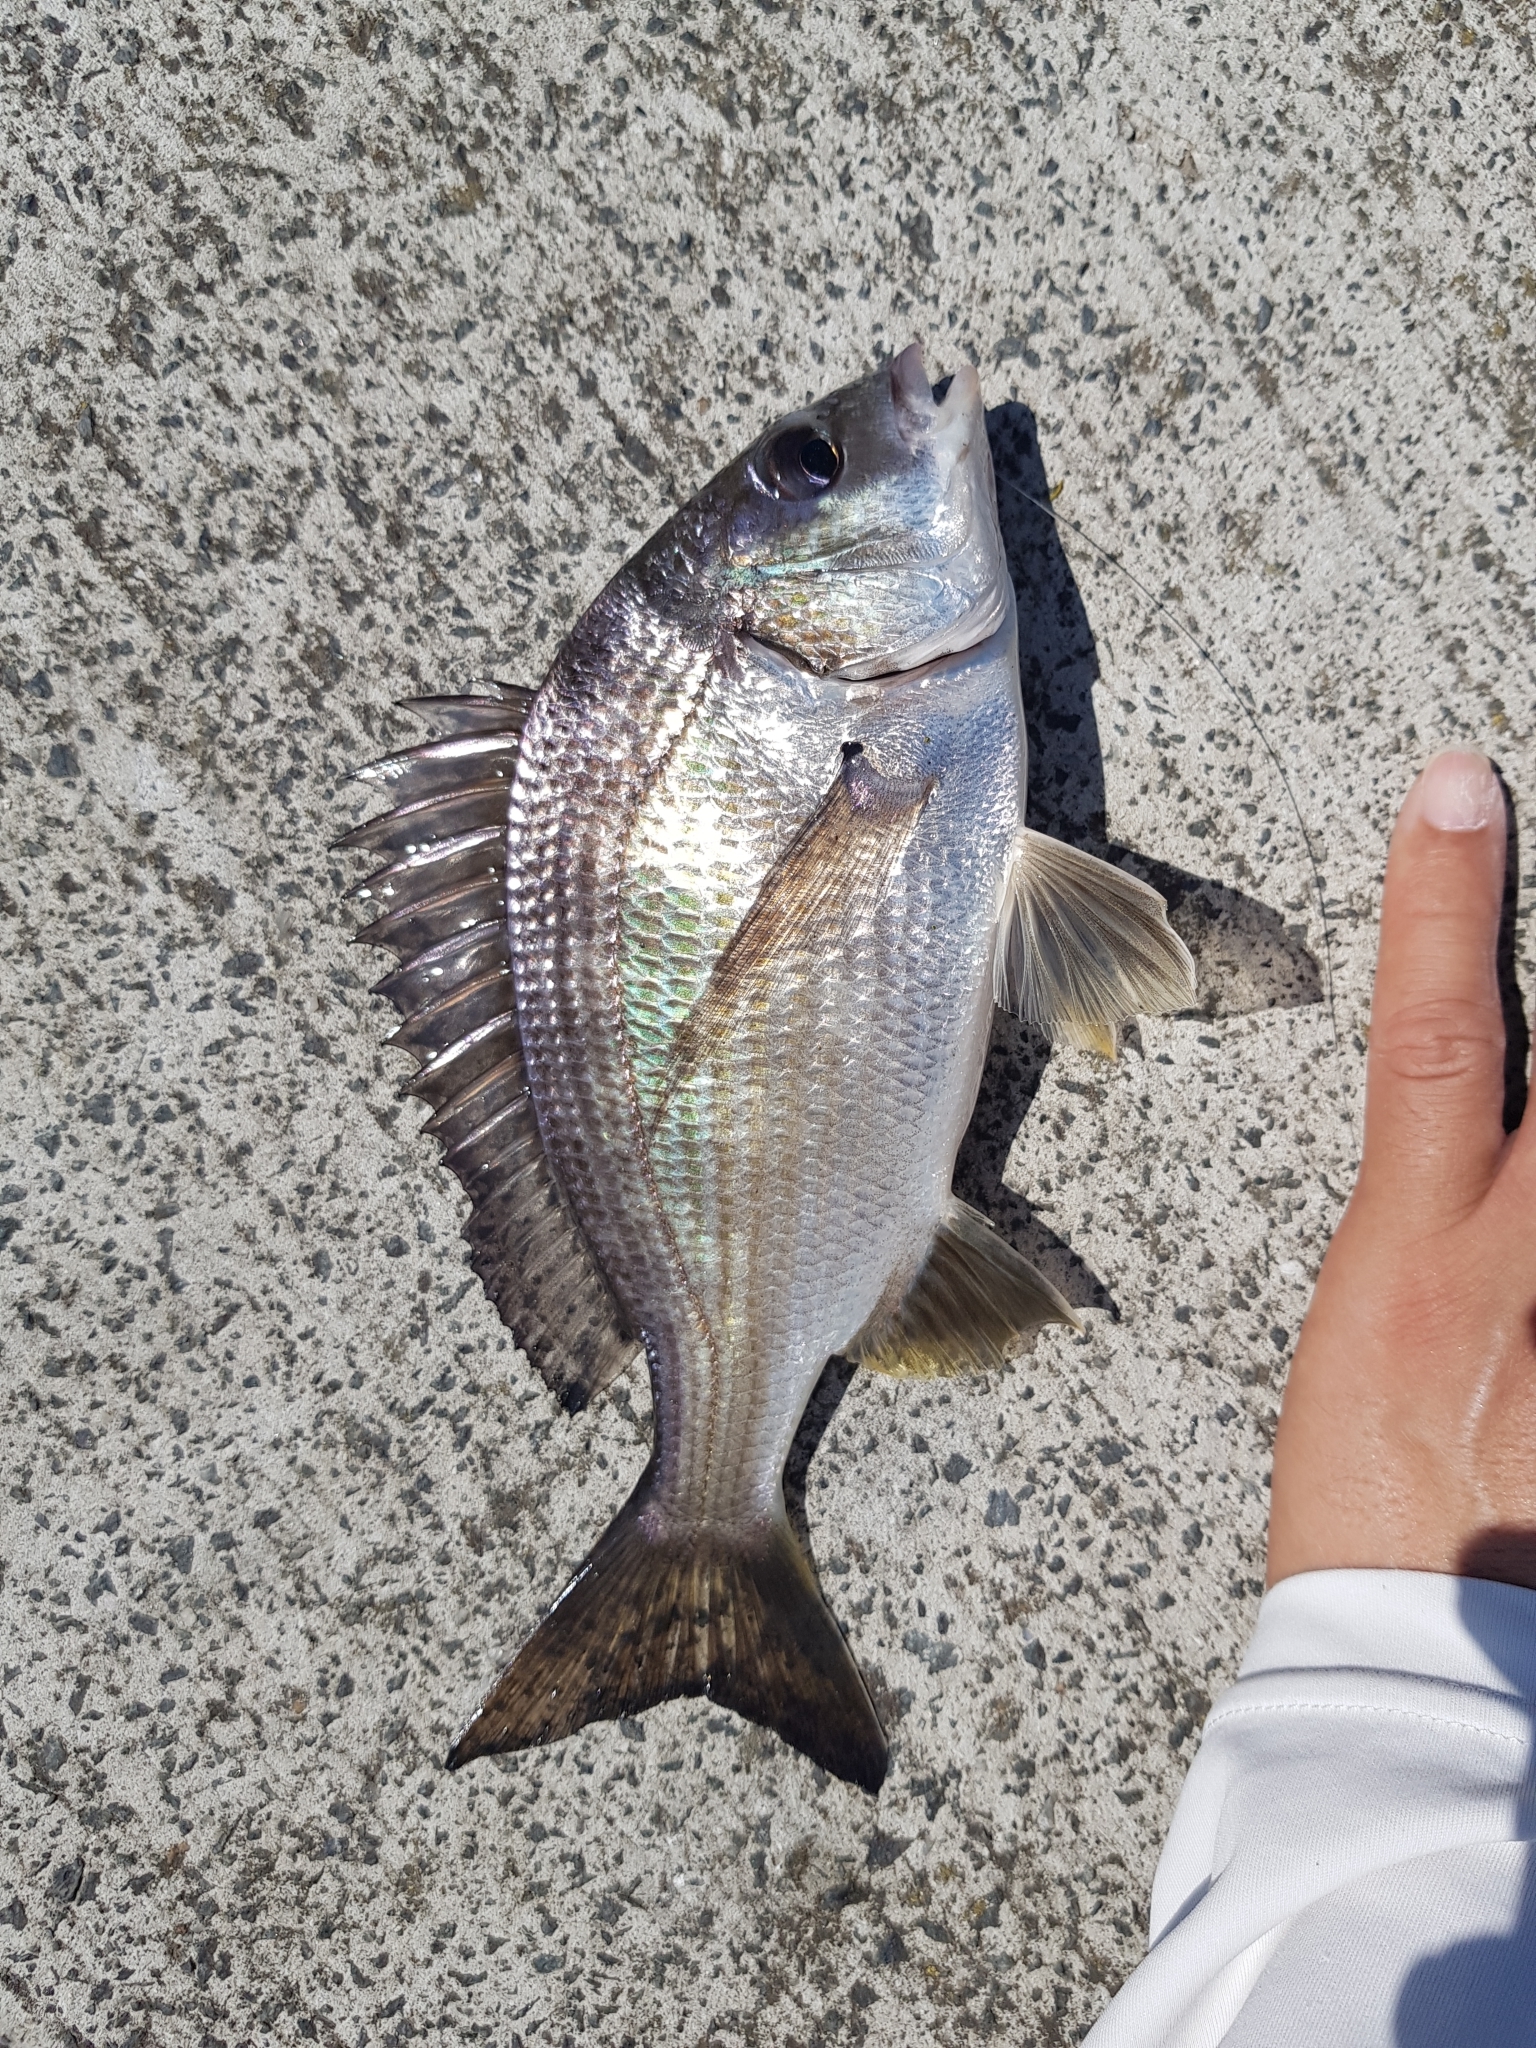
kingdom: Animalia
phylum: Chordata
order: Perciformes
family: Sparidae
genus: Acanthopagrus
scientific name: Acanthopagrus butcheri
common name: Black bream
